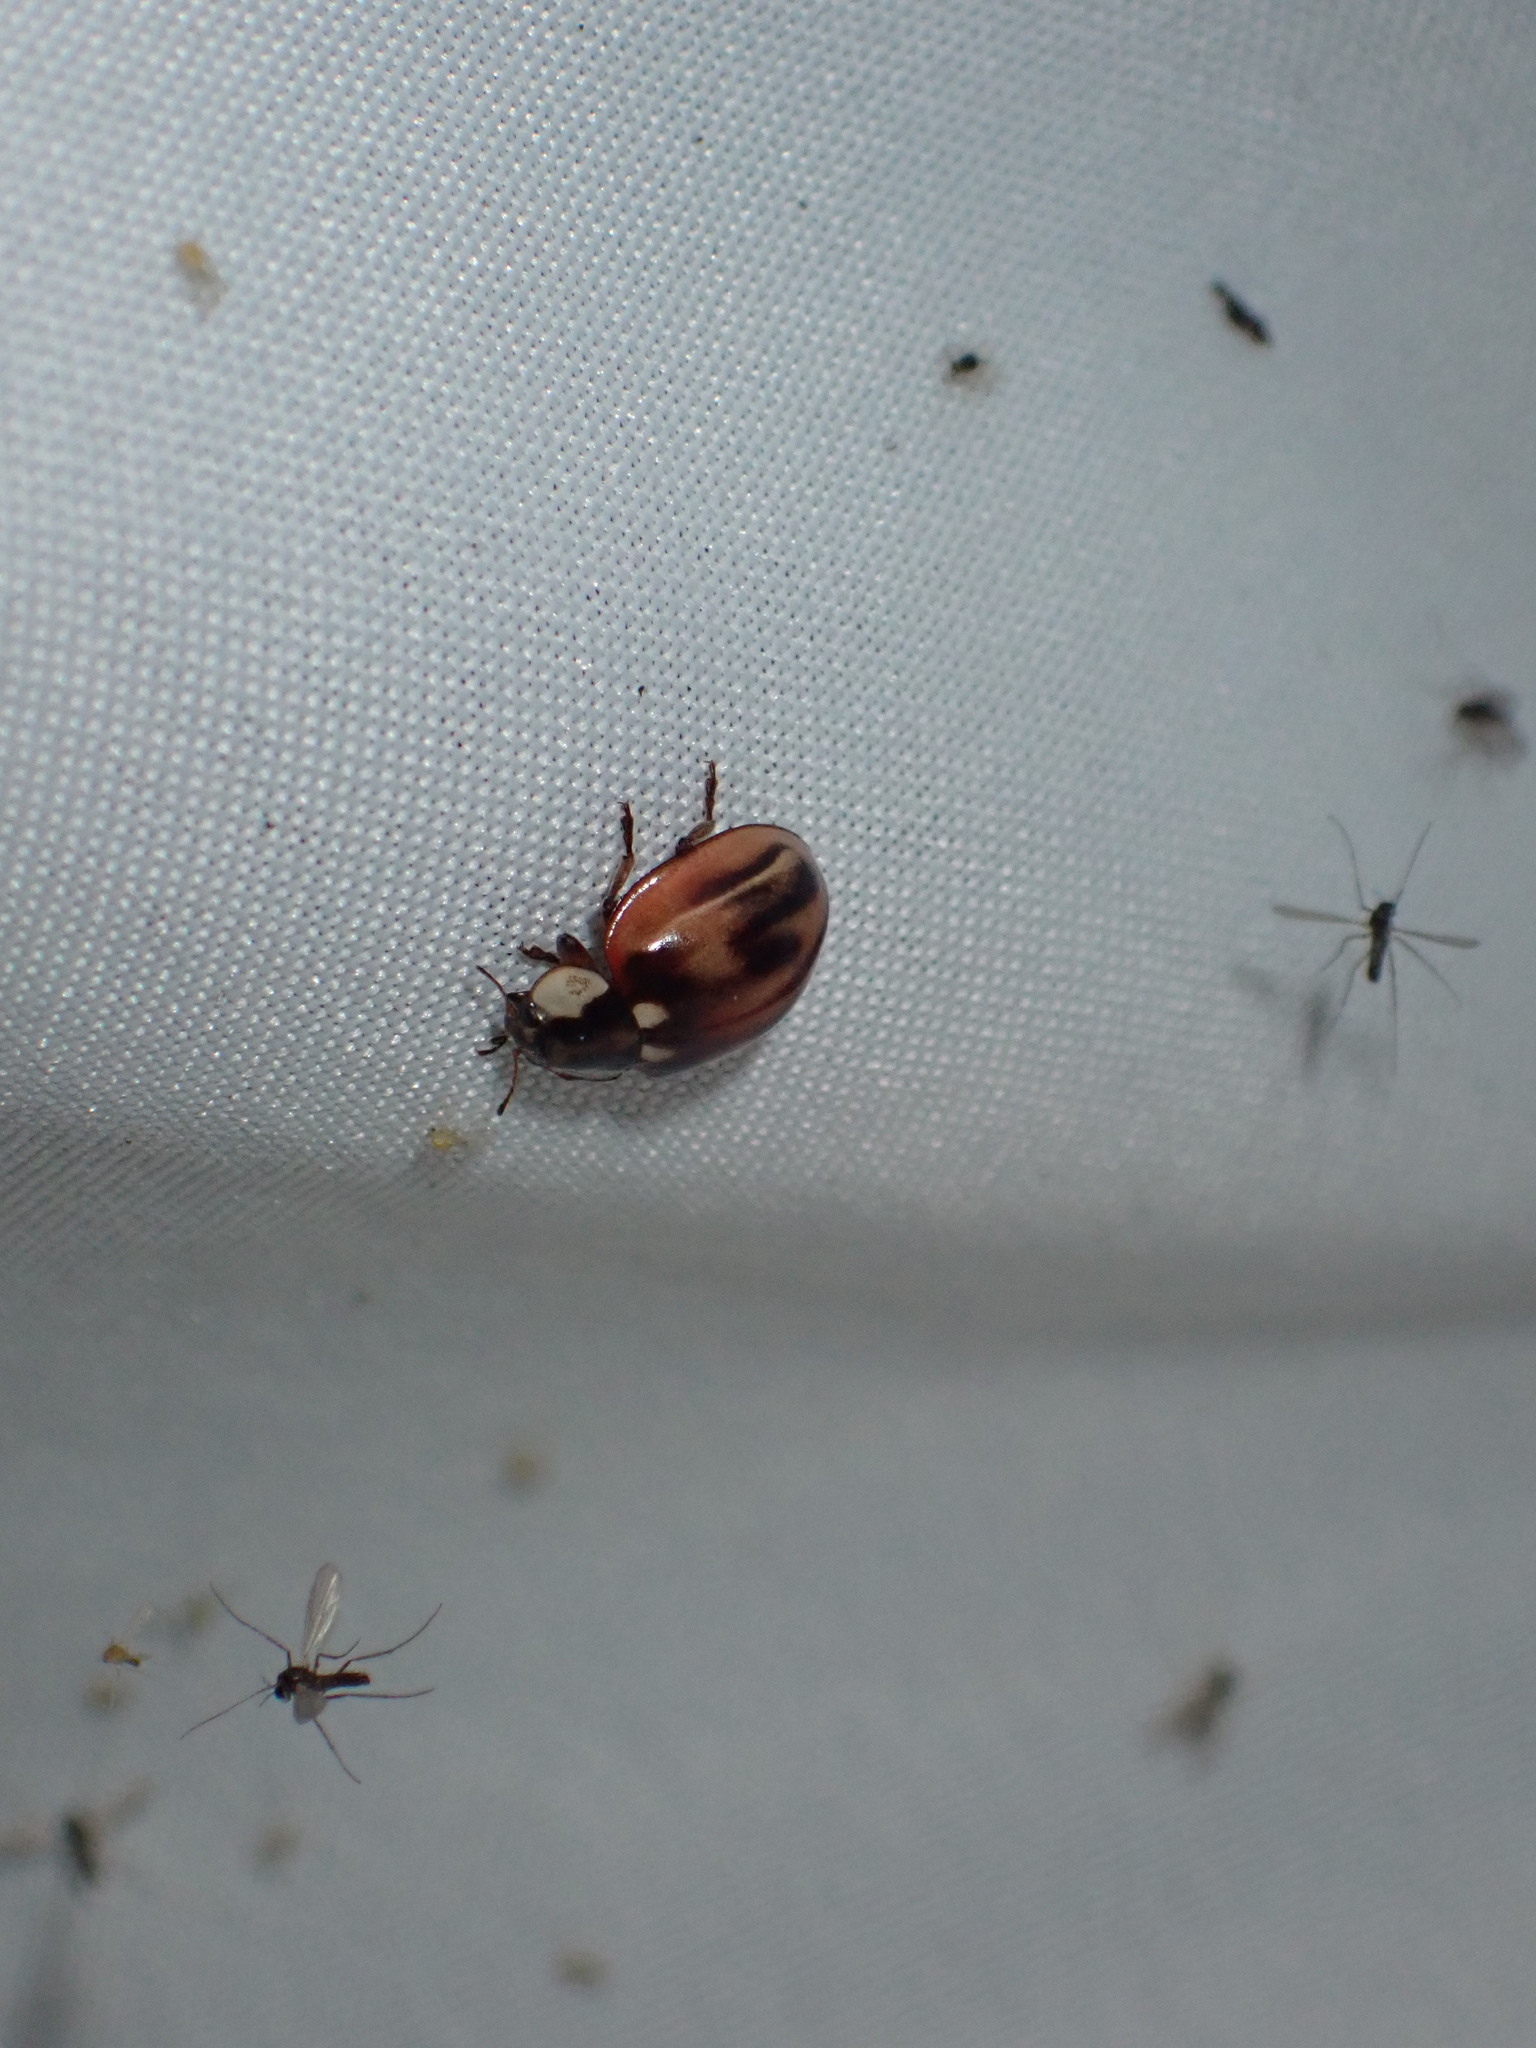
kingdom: Animalia
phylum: Arthropoda
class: Insecta
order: Coleoptera
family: Coccinellidae
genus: Myzia
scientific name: Myzia subvittata
